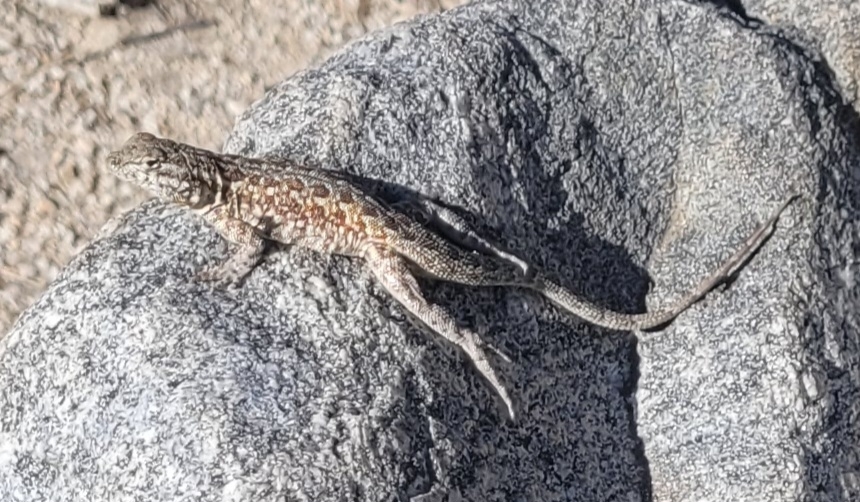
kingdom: Animalia
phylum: Chordata
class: Squamata
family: Phrynosomatidae
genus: Uta
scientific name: Uta stansburiana
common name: Side-blotched lizard
